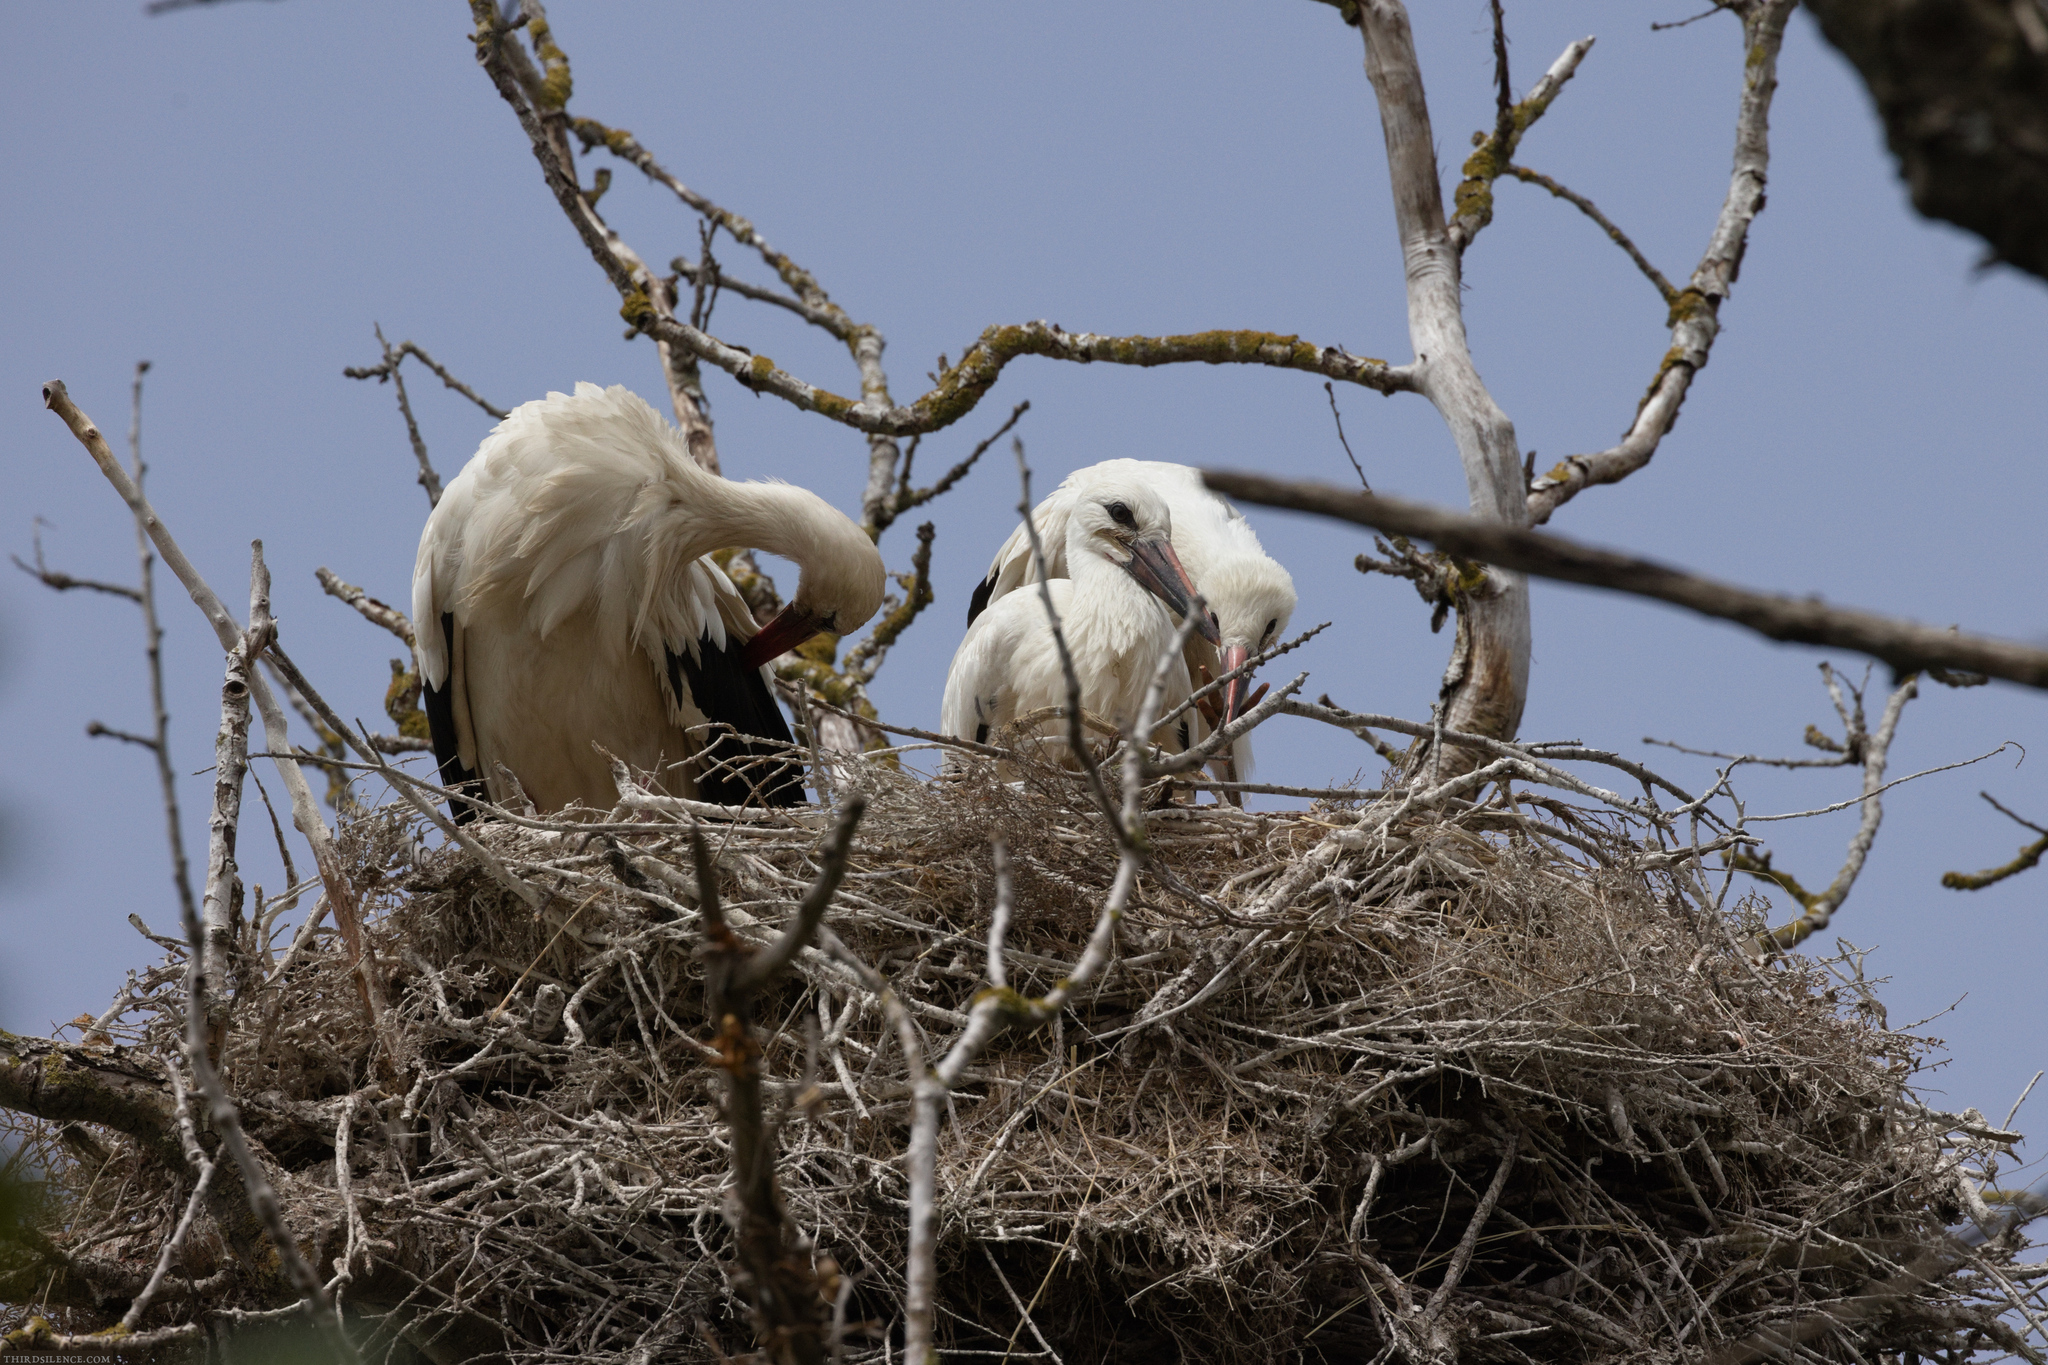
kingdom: Animalia
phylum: Chordata
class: Aves
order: Ciconiiformes
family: Ciconiidae
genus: Ciconia
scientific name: Ciconia ciconia
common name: White stork
